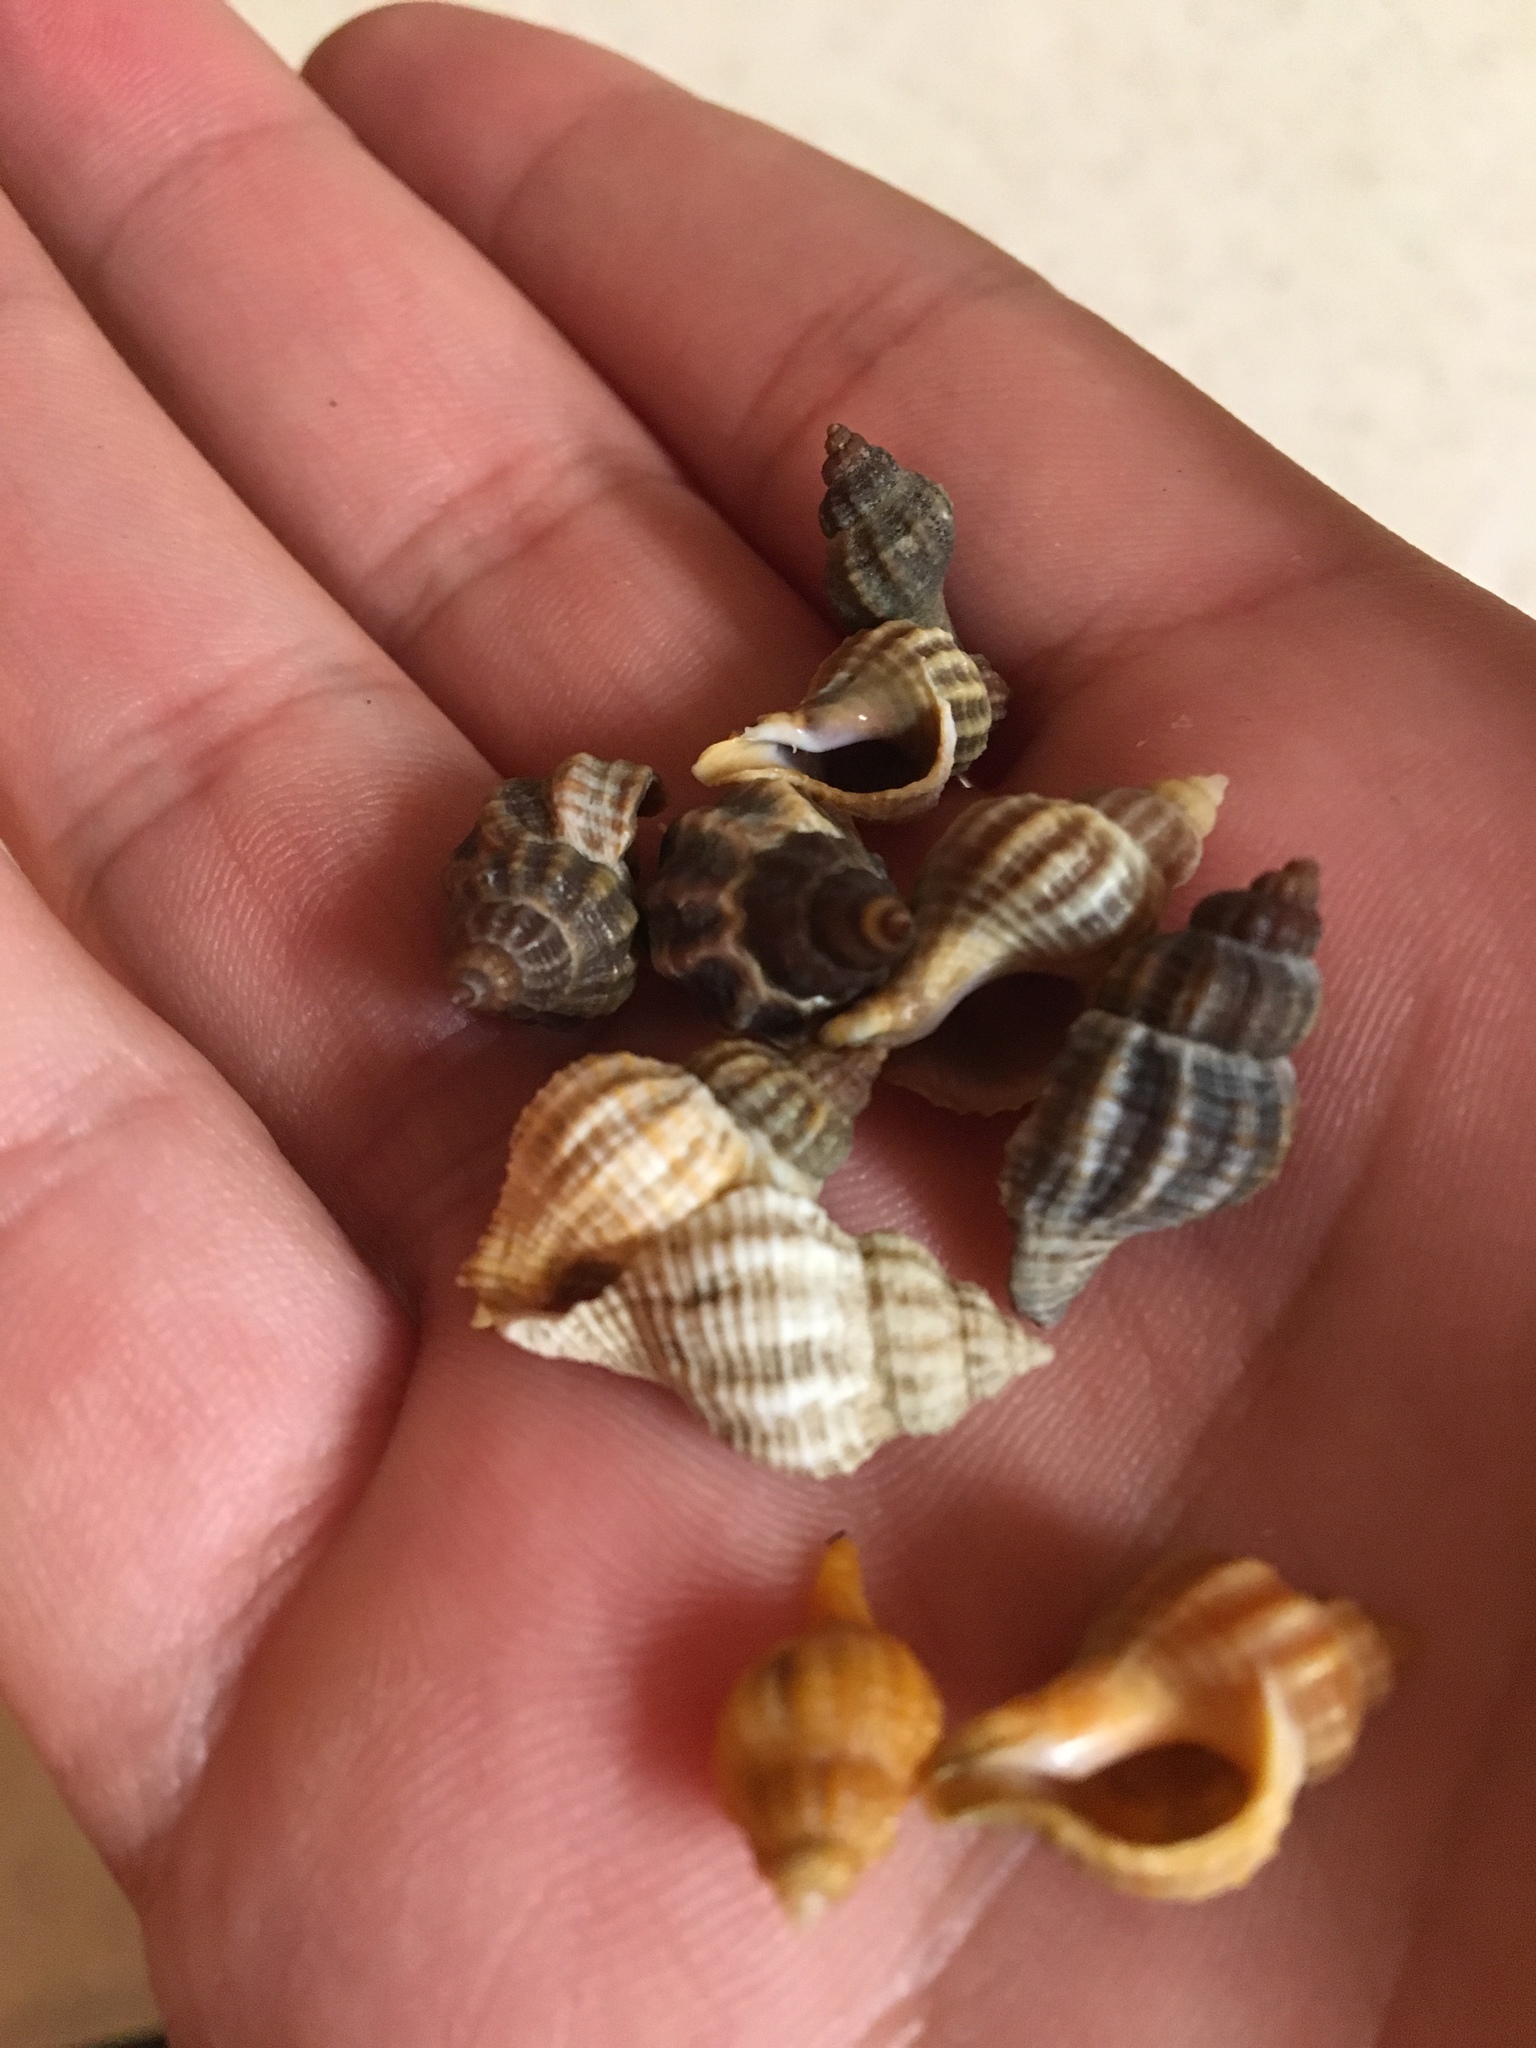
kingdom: Animalia
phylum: Mollusca
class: Gastropoda
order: Neogastropoda
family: Muricidae
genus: Urosalpinx
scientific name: Urosalpinx cinerea
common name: American sting winkle
